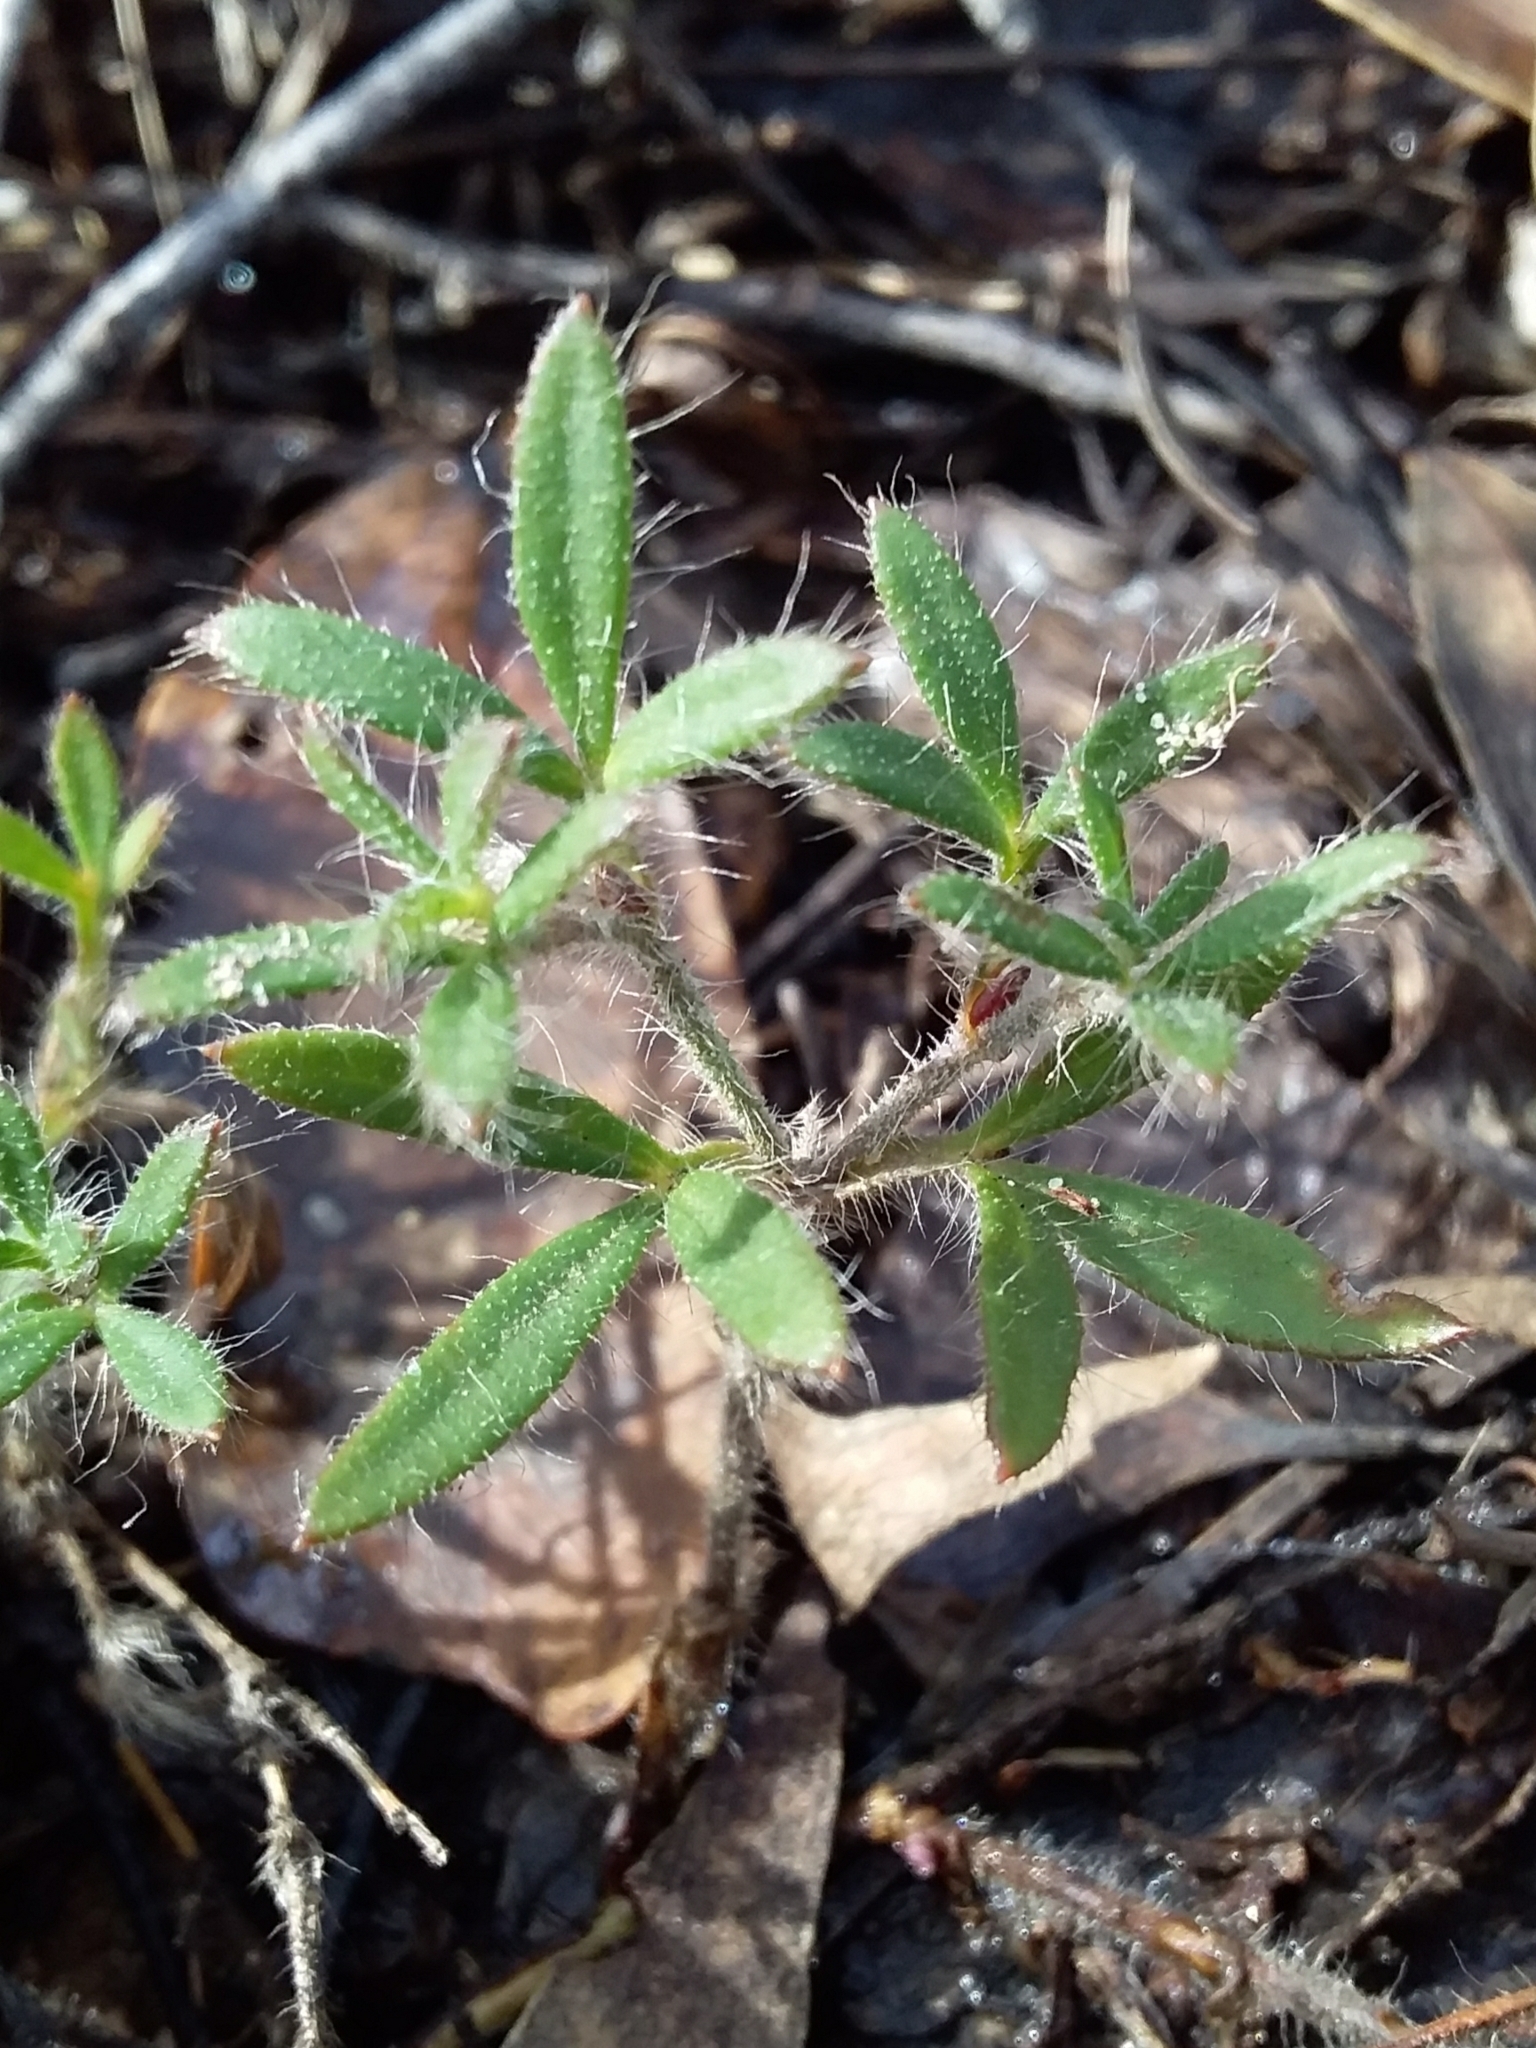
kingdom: Plantae
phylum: Tracheophyta
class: Magnoliopsida
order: Apiales
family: Apiaceae
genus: Xanthosia
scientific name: Xanthosia huegelii
